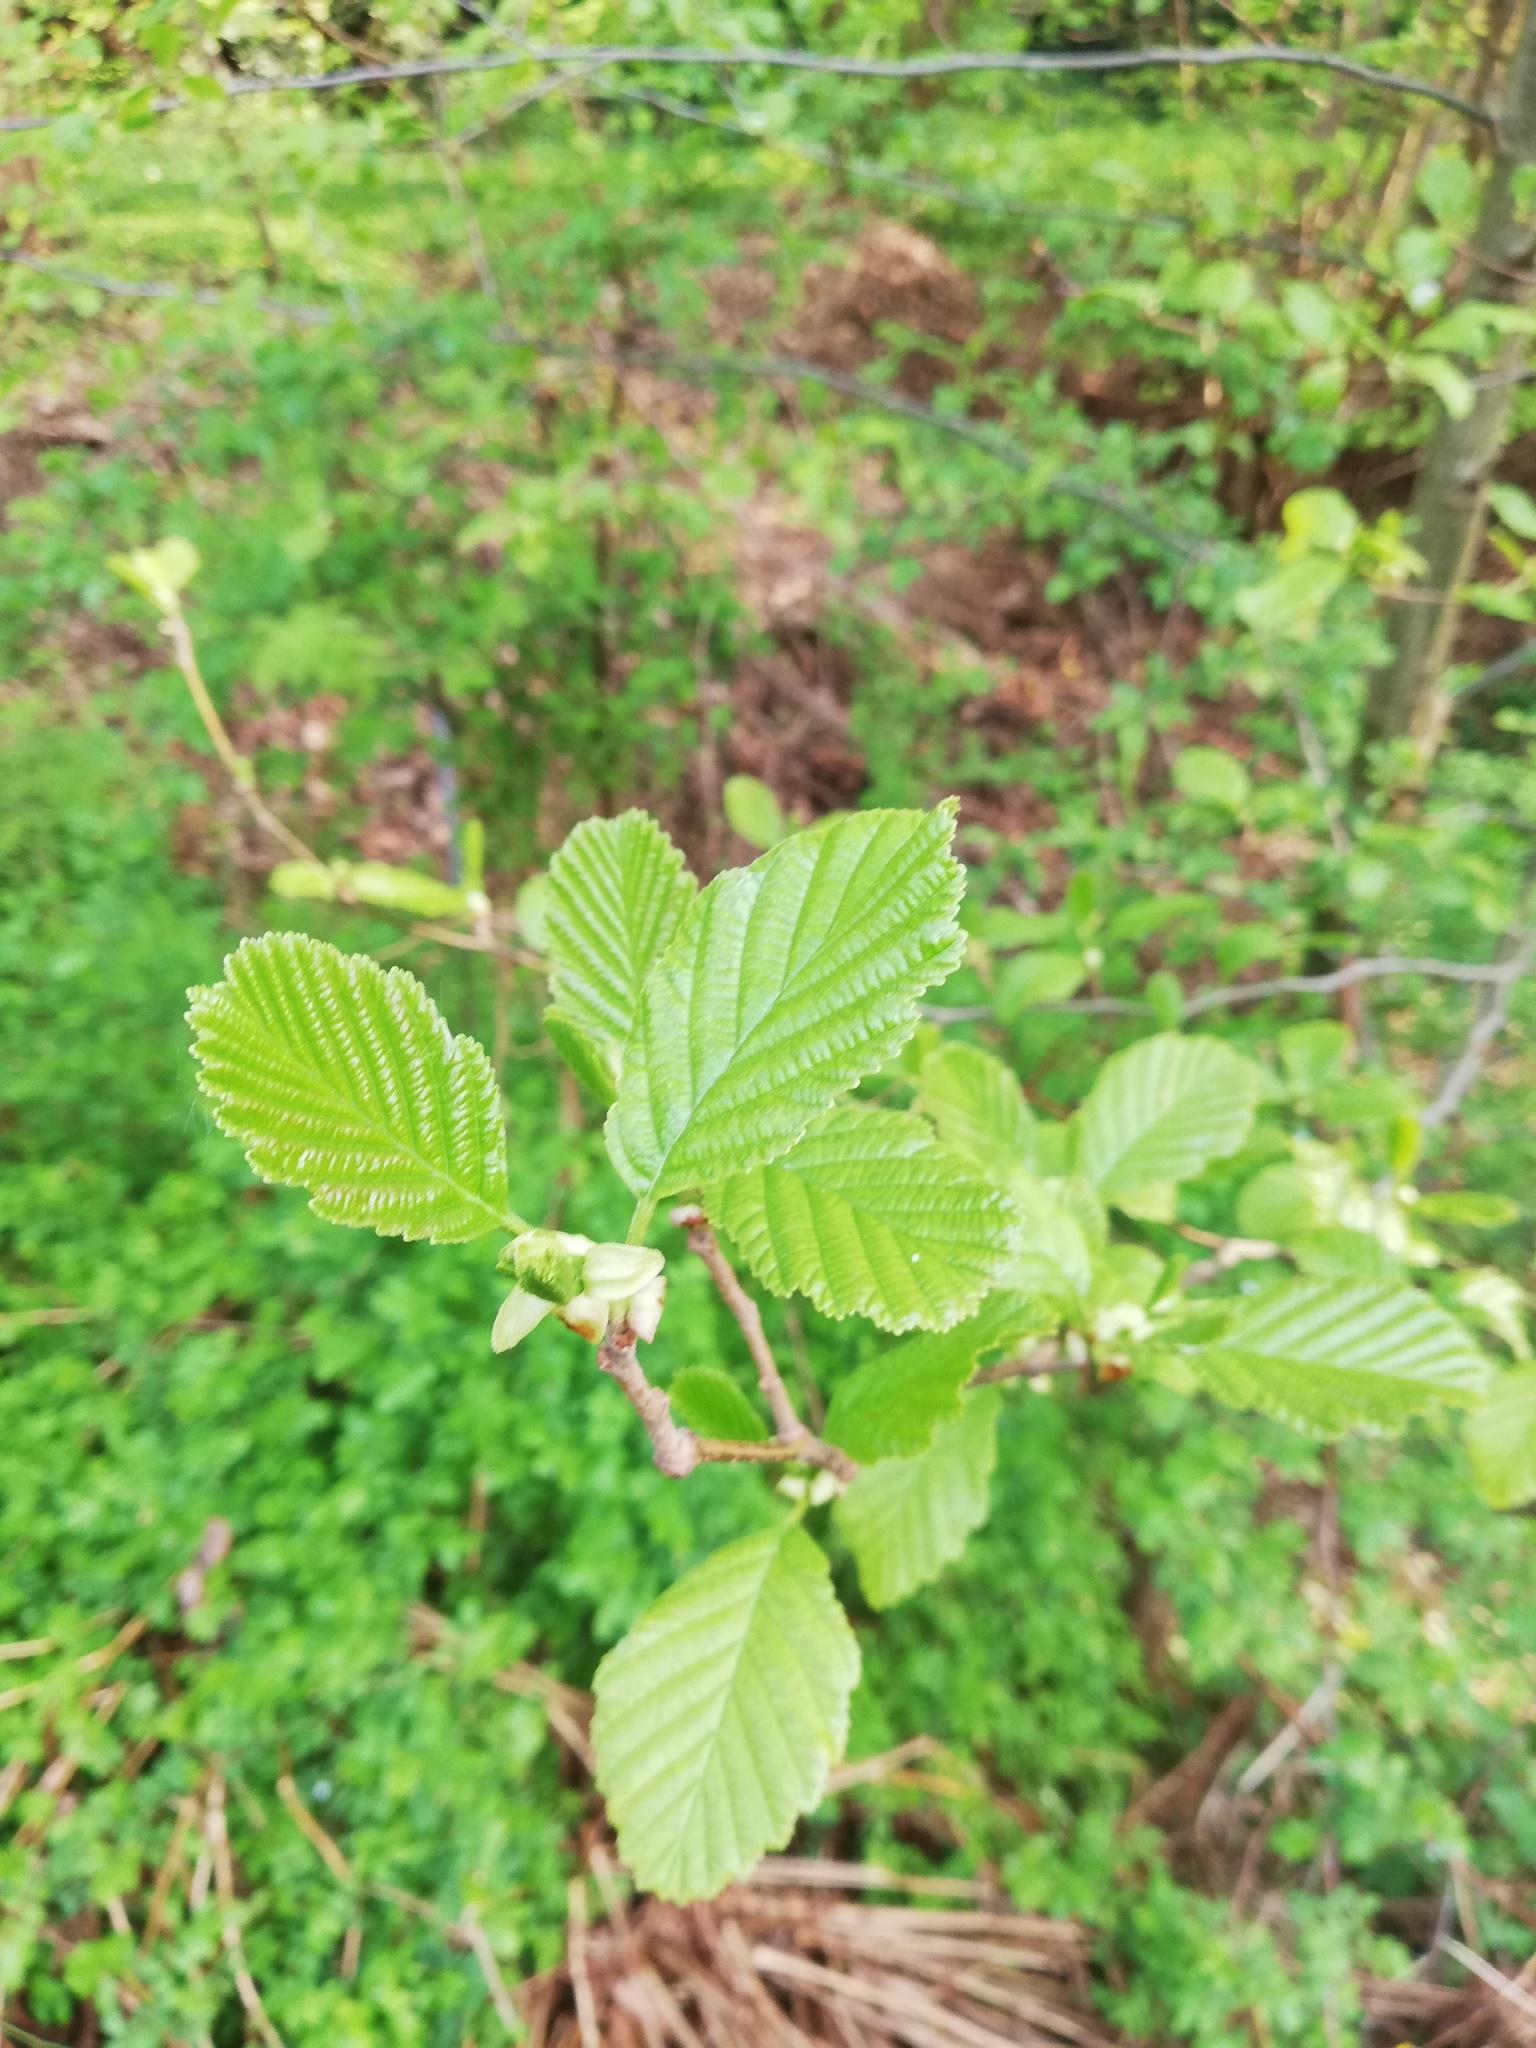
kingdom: Plantae
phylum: Tracheophyta
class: Magnoliopsida
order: Fagales
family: Betulaceae
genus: Alnus
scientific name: Alnus glutinosa
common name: Black alder
